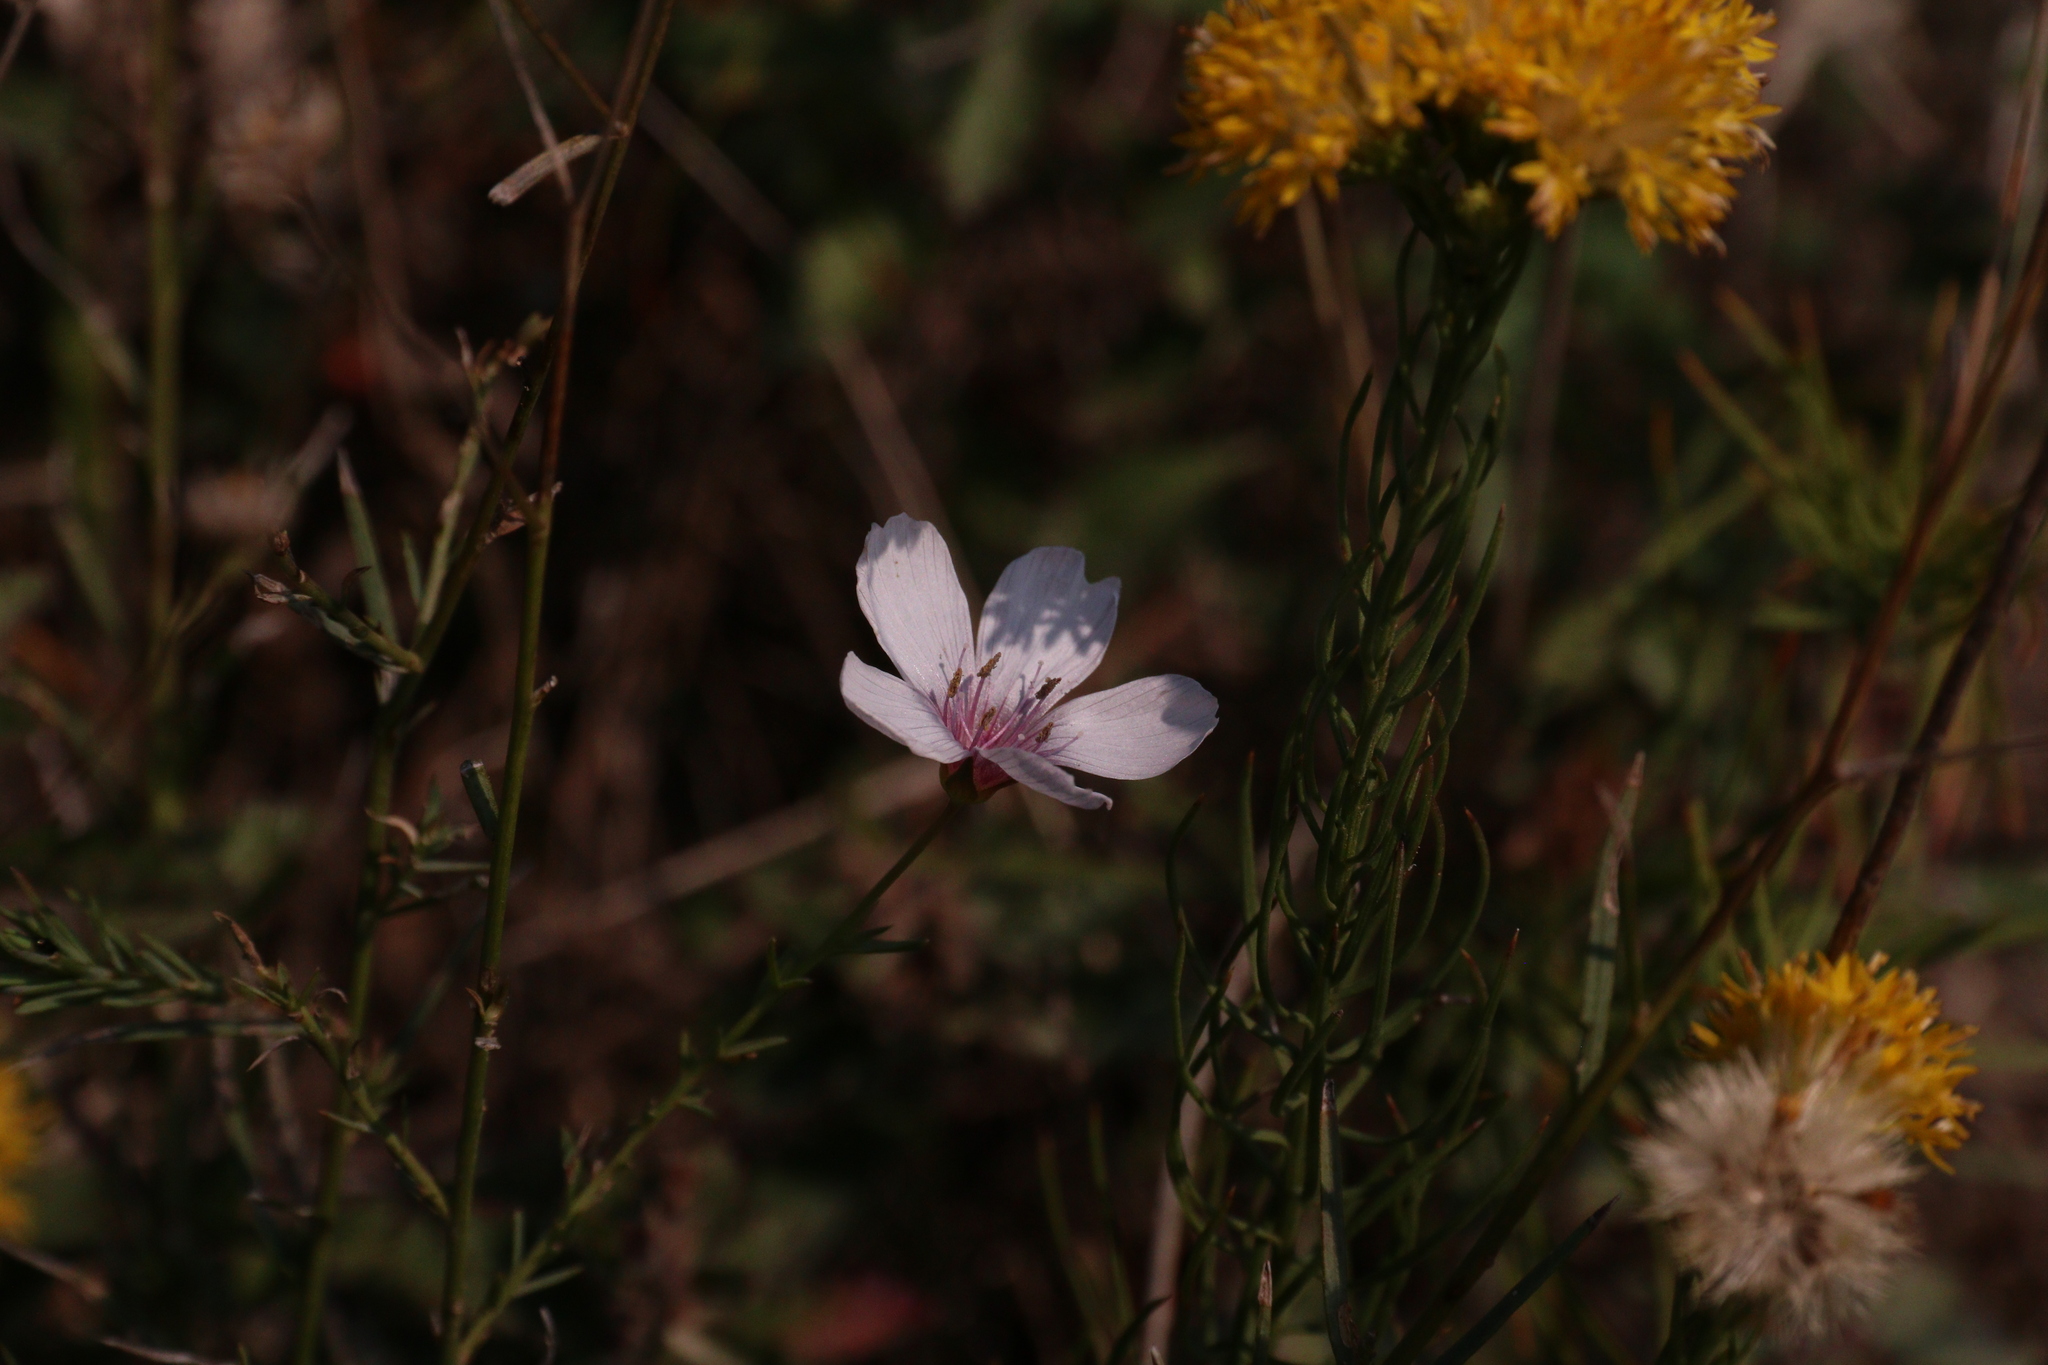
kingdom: Plantae
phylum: Tracheophyta
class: Magnoliopsida
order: Malpighiales
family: Linaceae
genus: Linum
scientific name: Linum tenuifolium
